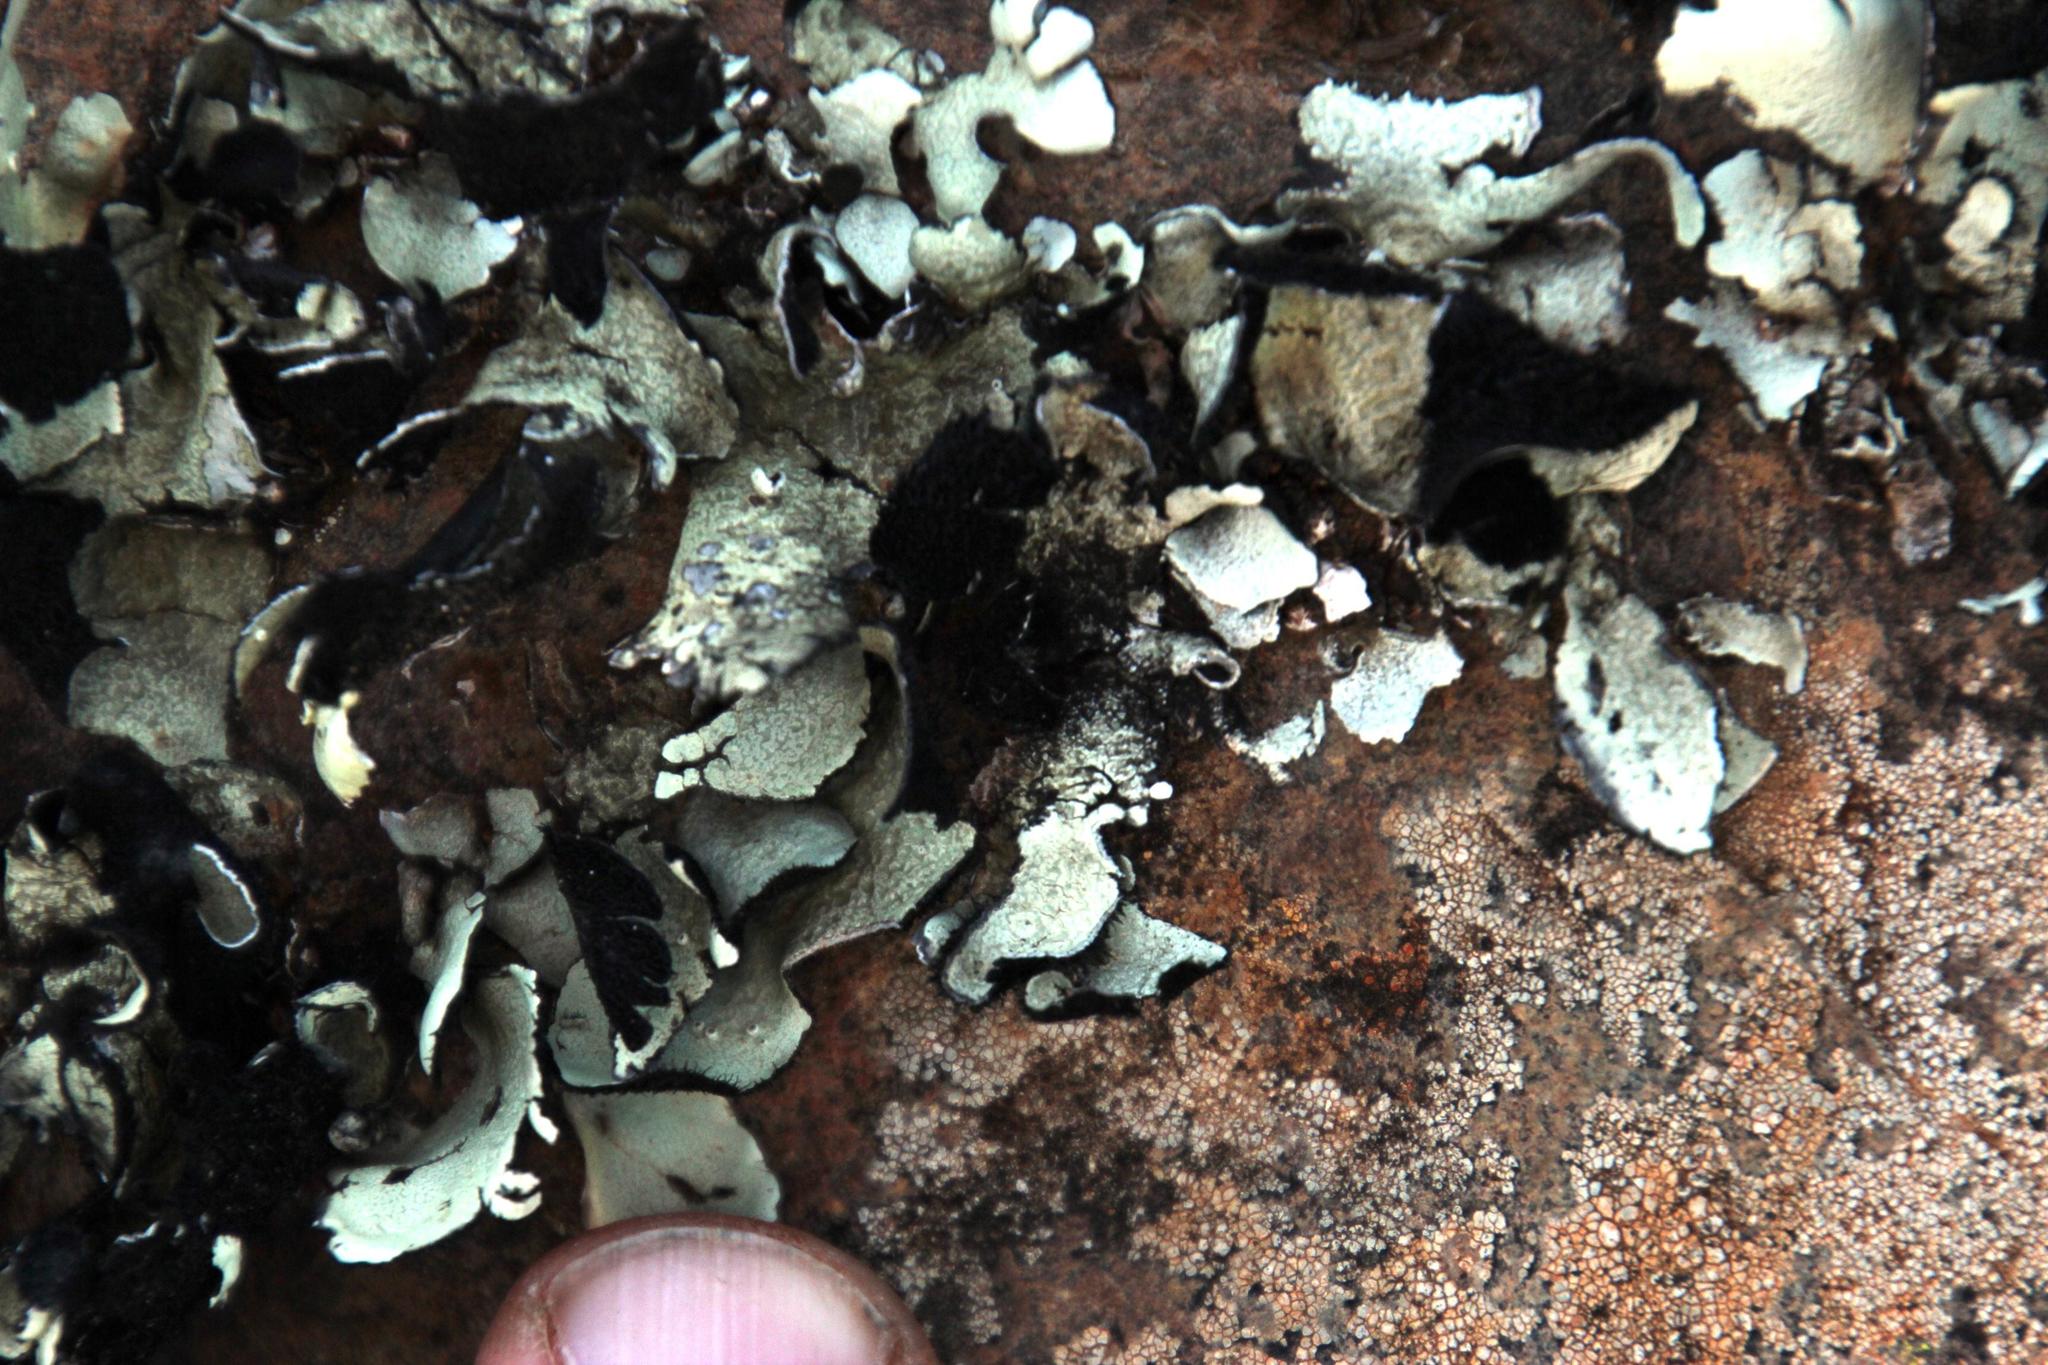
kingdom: Fungi
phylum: Ascomycota
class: Lecanoromycetes
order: Lecanorales
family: Parmeliaceae
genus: Xanthoparmelia
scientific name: Xanthoparmelia hottentotta
